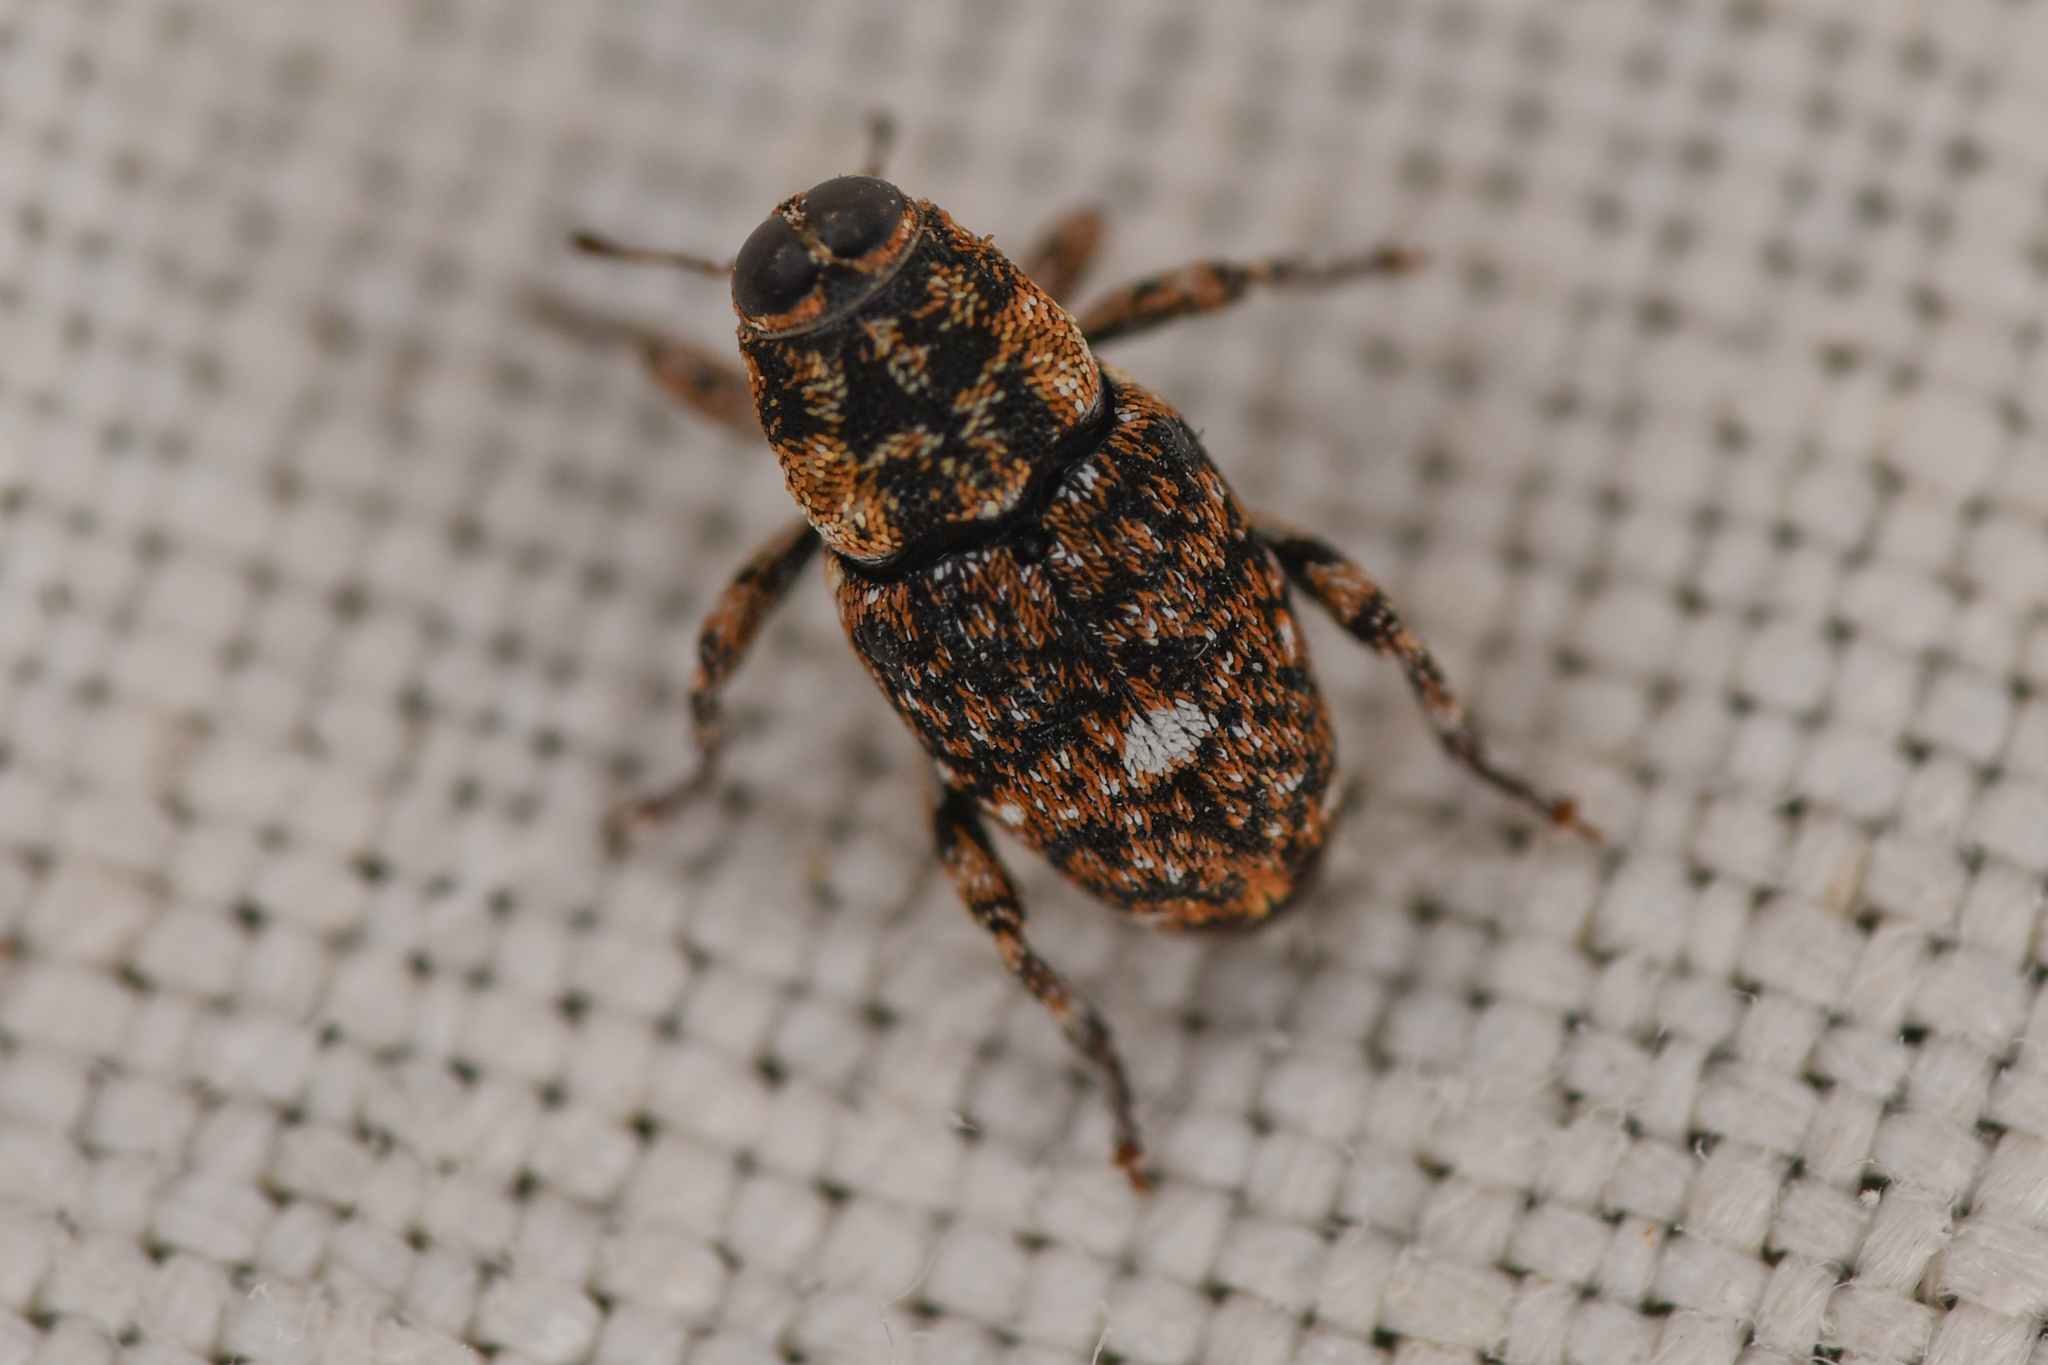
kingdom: Animalia
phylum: Arthropoda
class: Insecta
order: Coleoptera
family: Curculionidae
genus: Bagous
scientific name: Bagous californicus
